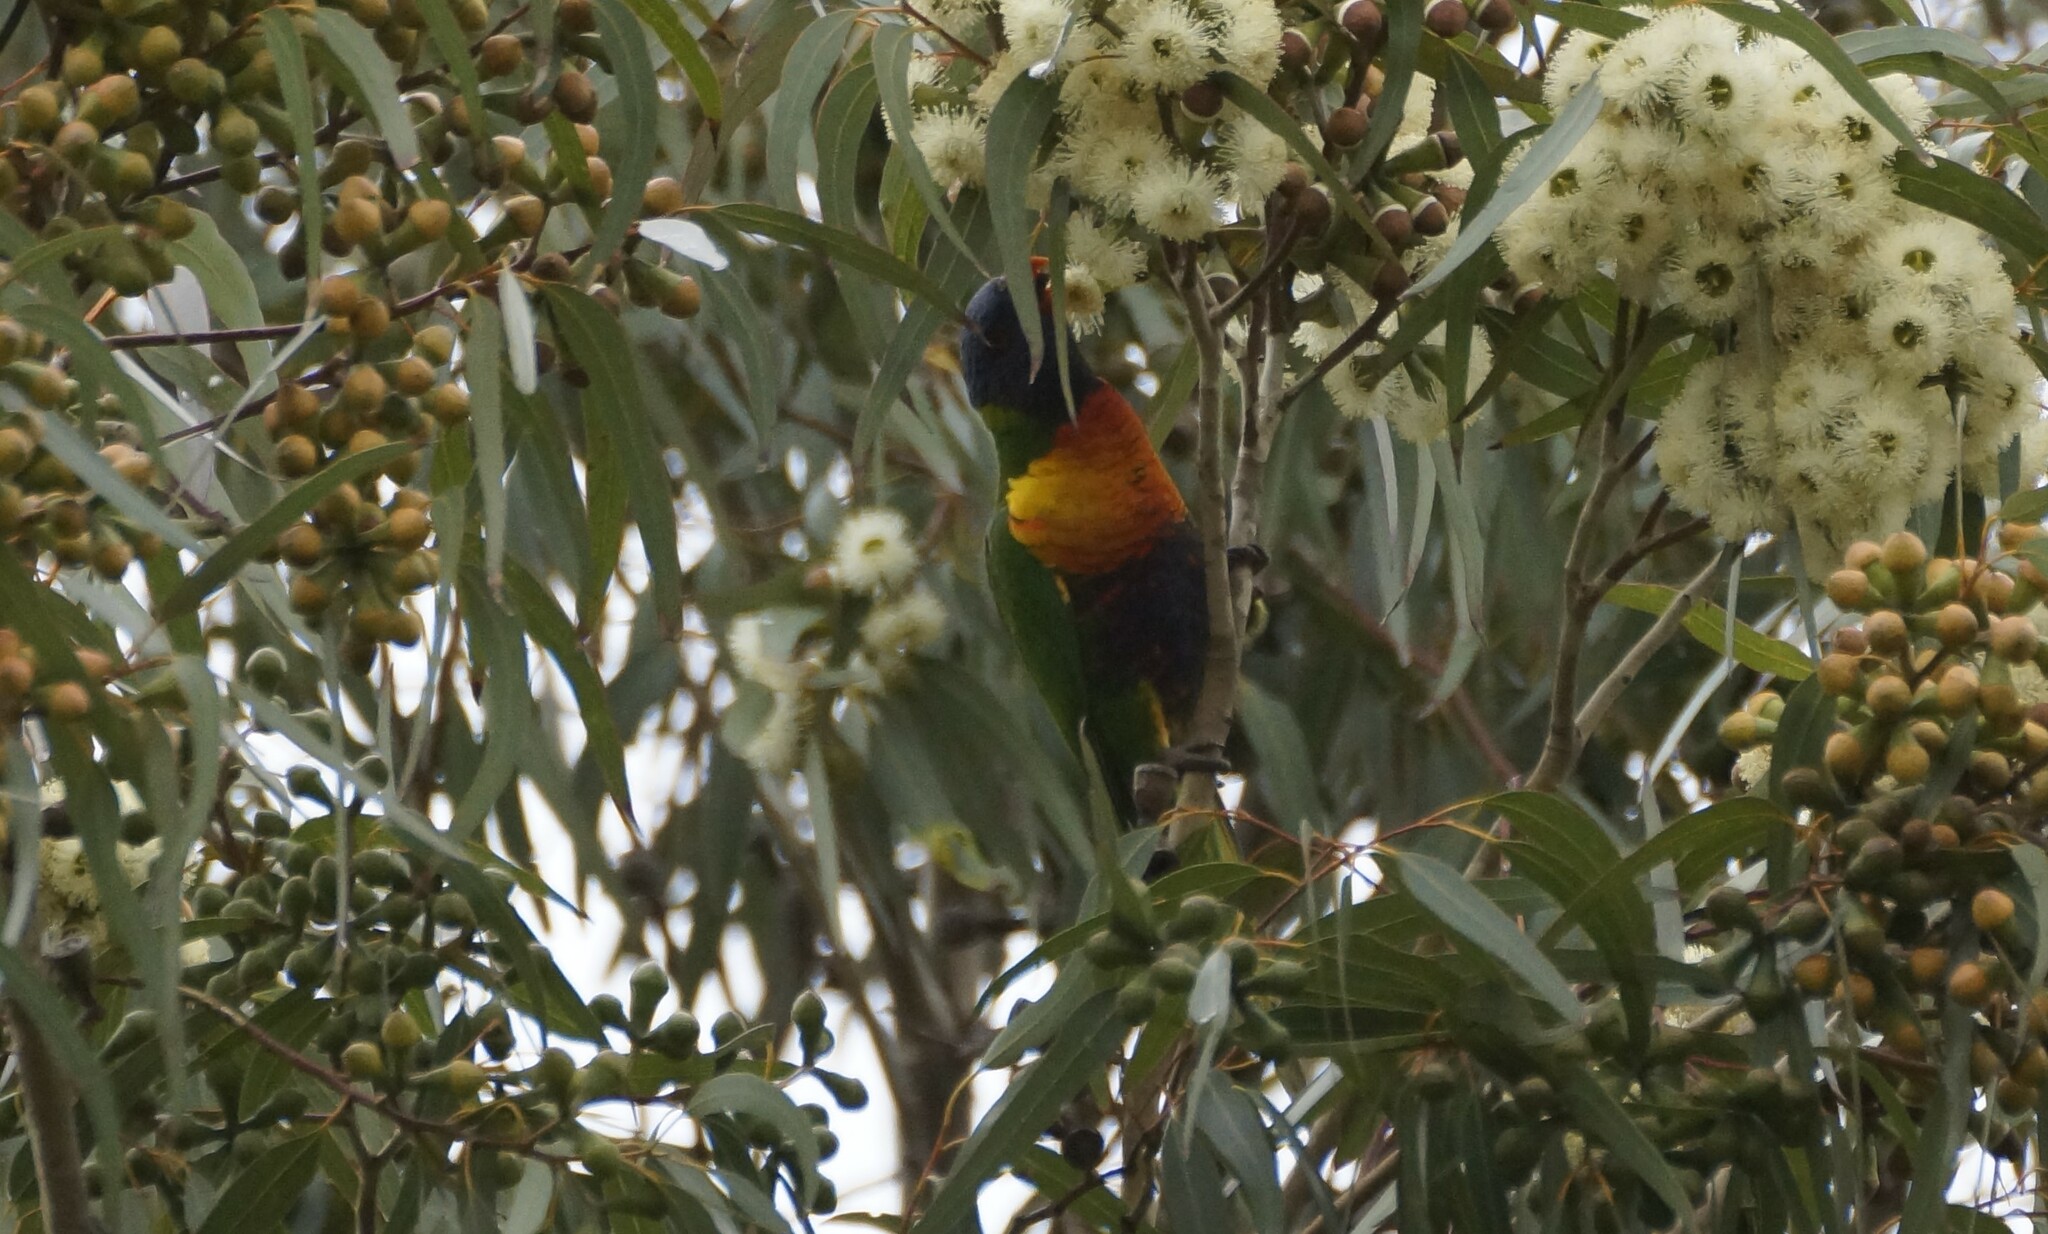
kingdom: Animalia
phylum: Chordata
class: Aves
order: Psittaciformes
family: Psittacidae
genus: Trichoglossus
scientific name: Trichoglossus haematodus
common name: Coconut lorikeet
